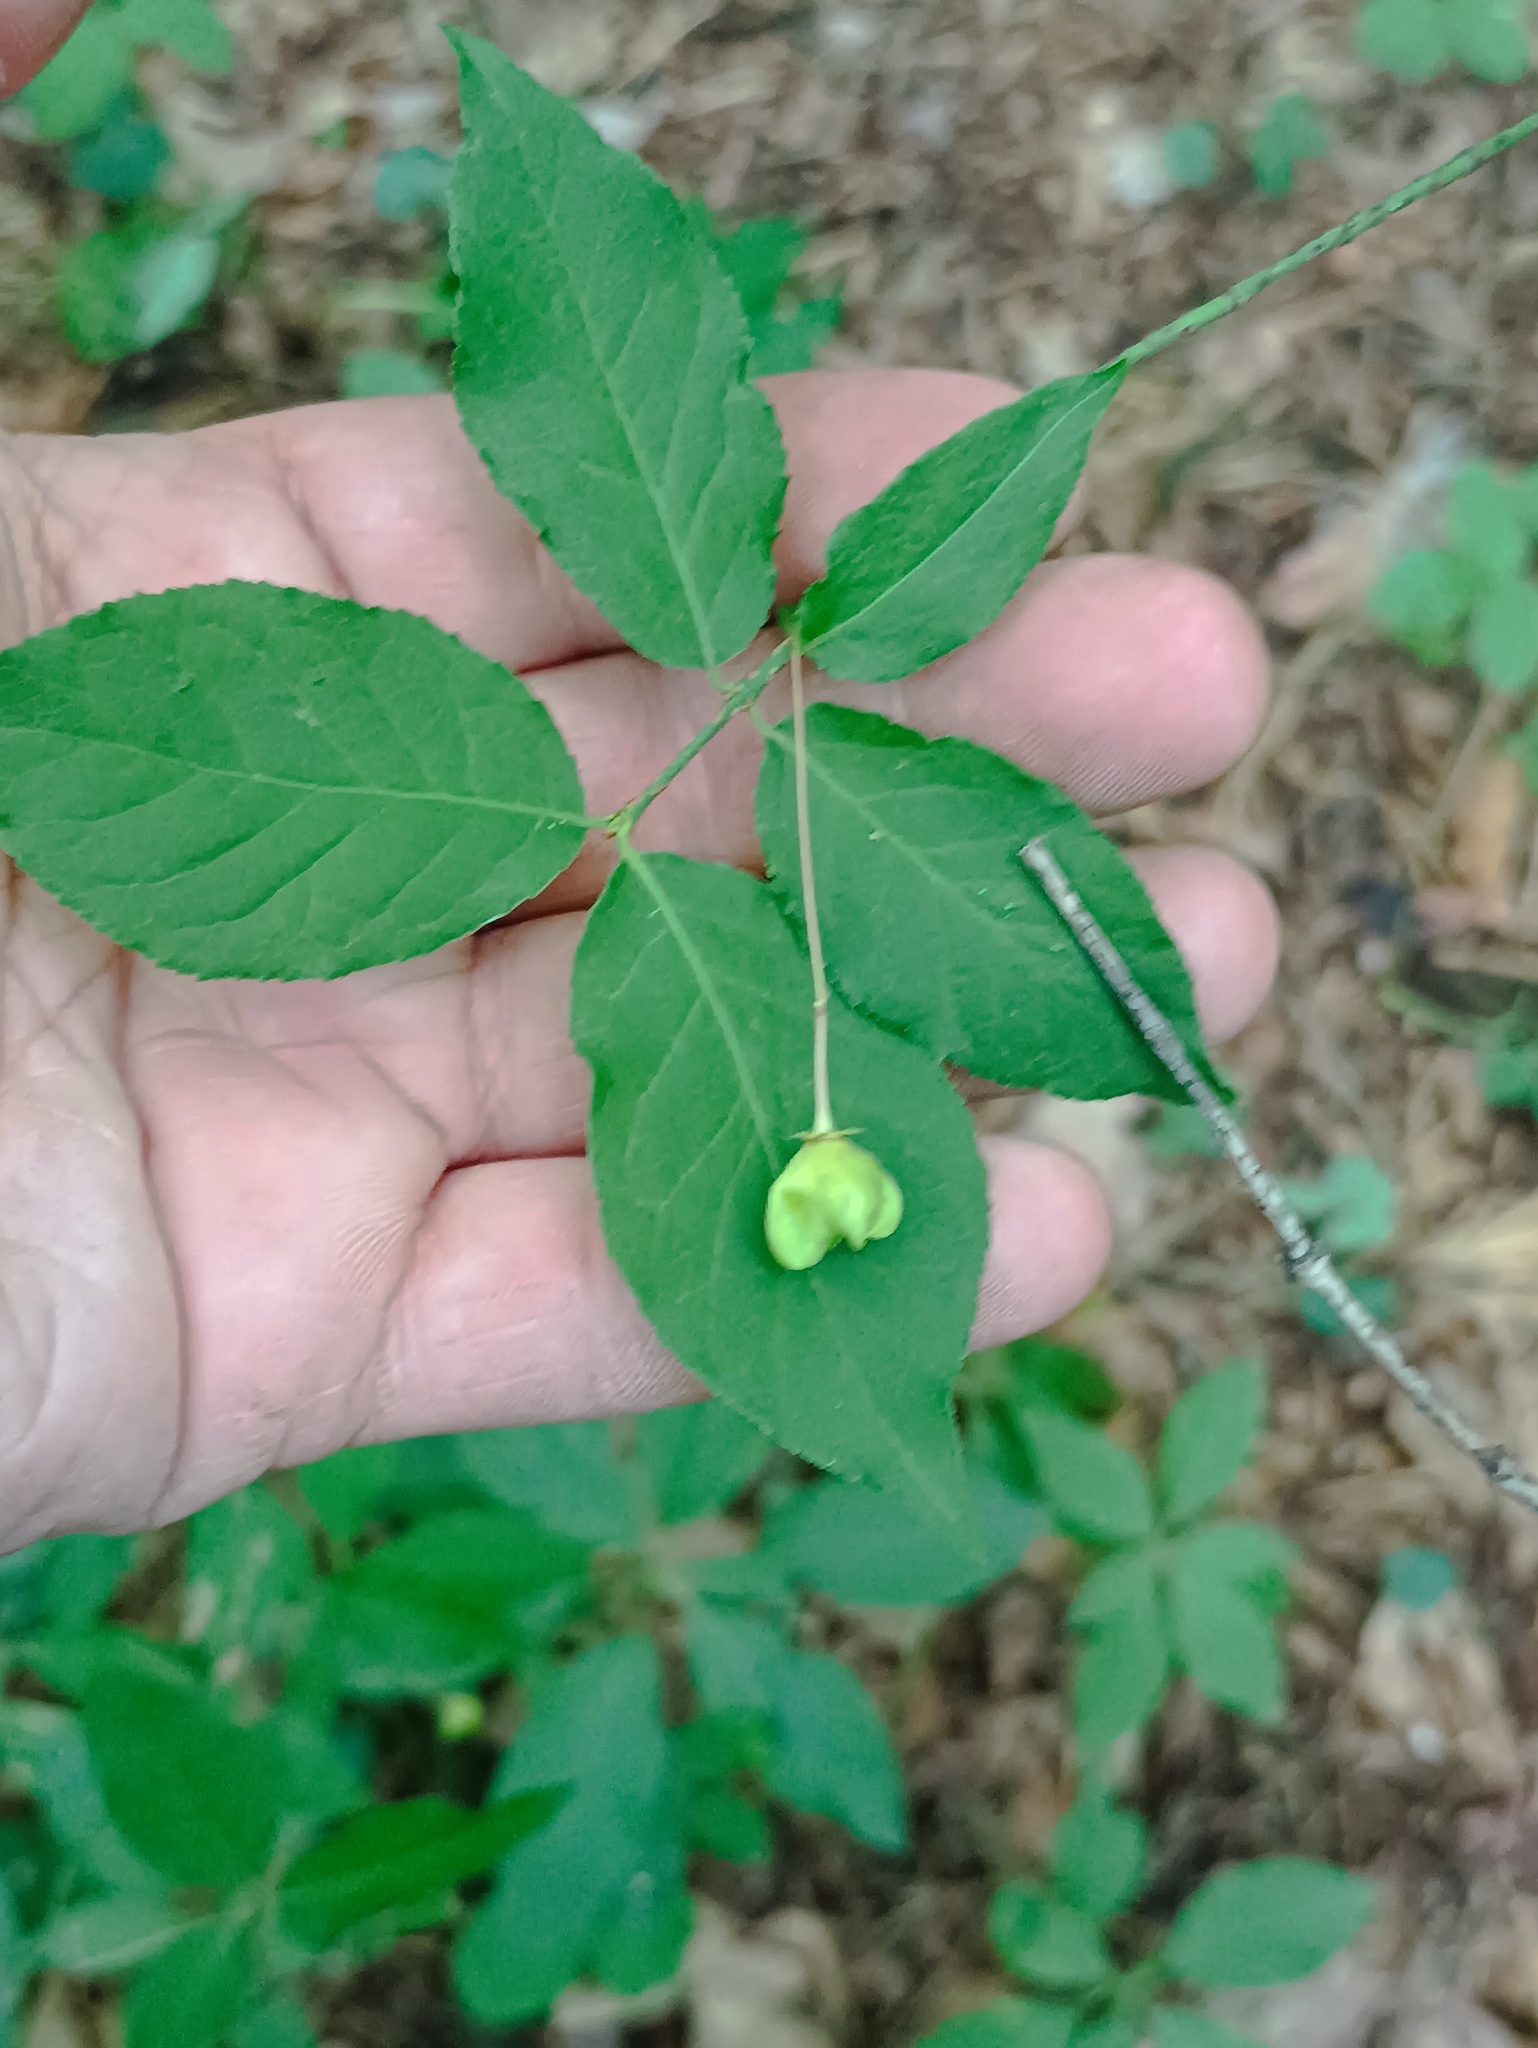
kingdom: Plantae
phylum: Tracheophyta
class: Magnoliopsida
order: Celastrales
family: Celastraceae
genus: Euonymus
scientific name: Euonymus verrucosus
